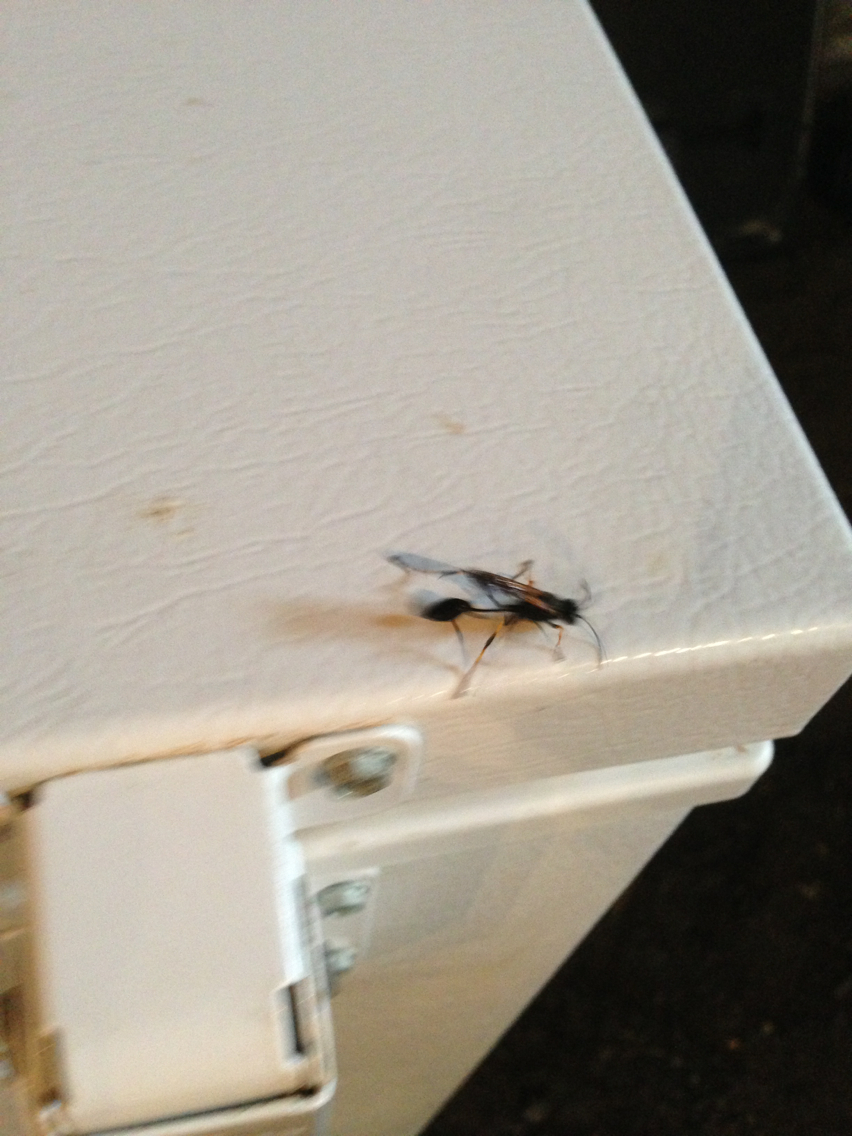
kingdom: Animalia
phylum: Arthropoda
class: Insecta
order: Hymenoptera
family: Sphecidae
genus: Sceliphron
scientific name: Sceliphron caementarium
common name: Mud dauber
